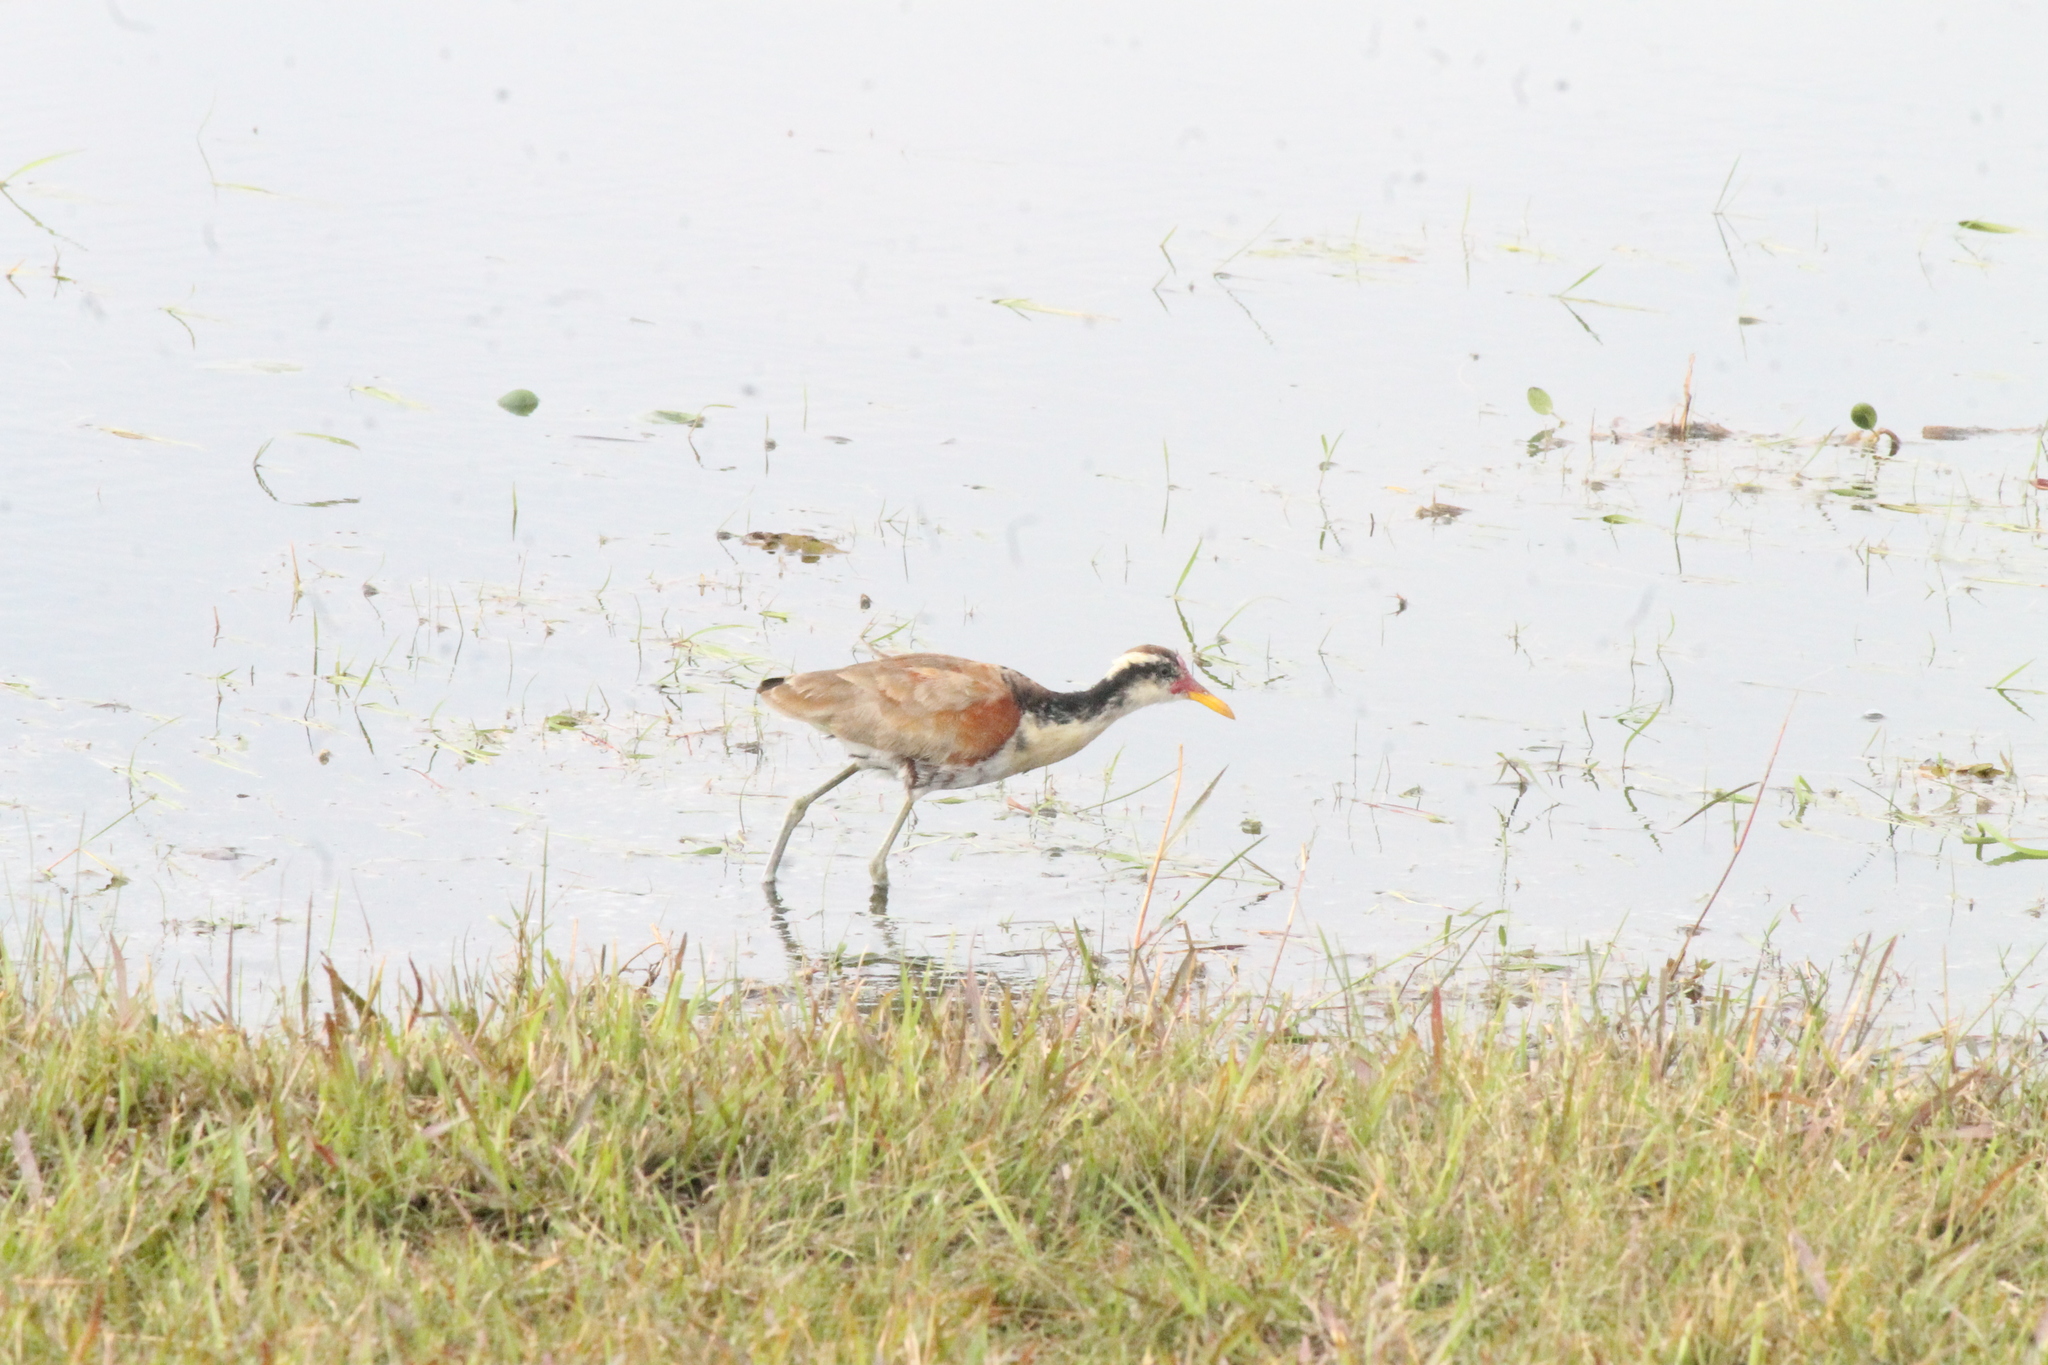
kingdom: Animalia
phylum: Chordata
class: Aves
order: Charadriiformes
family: Jacanidae
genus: Jacana
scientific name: Jacana jacana
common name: Wattled jacana
